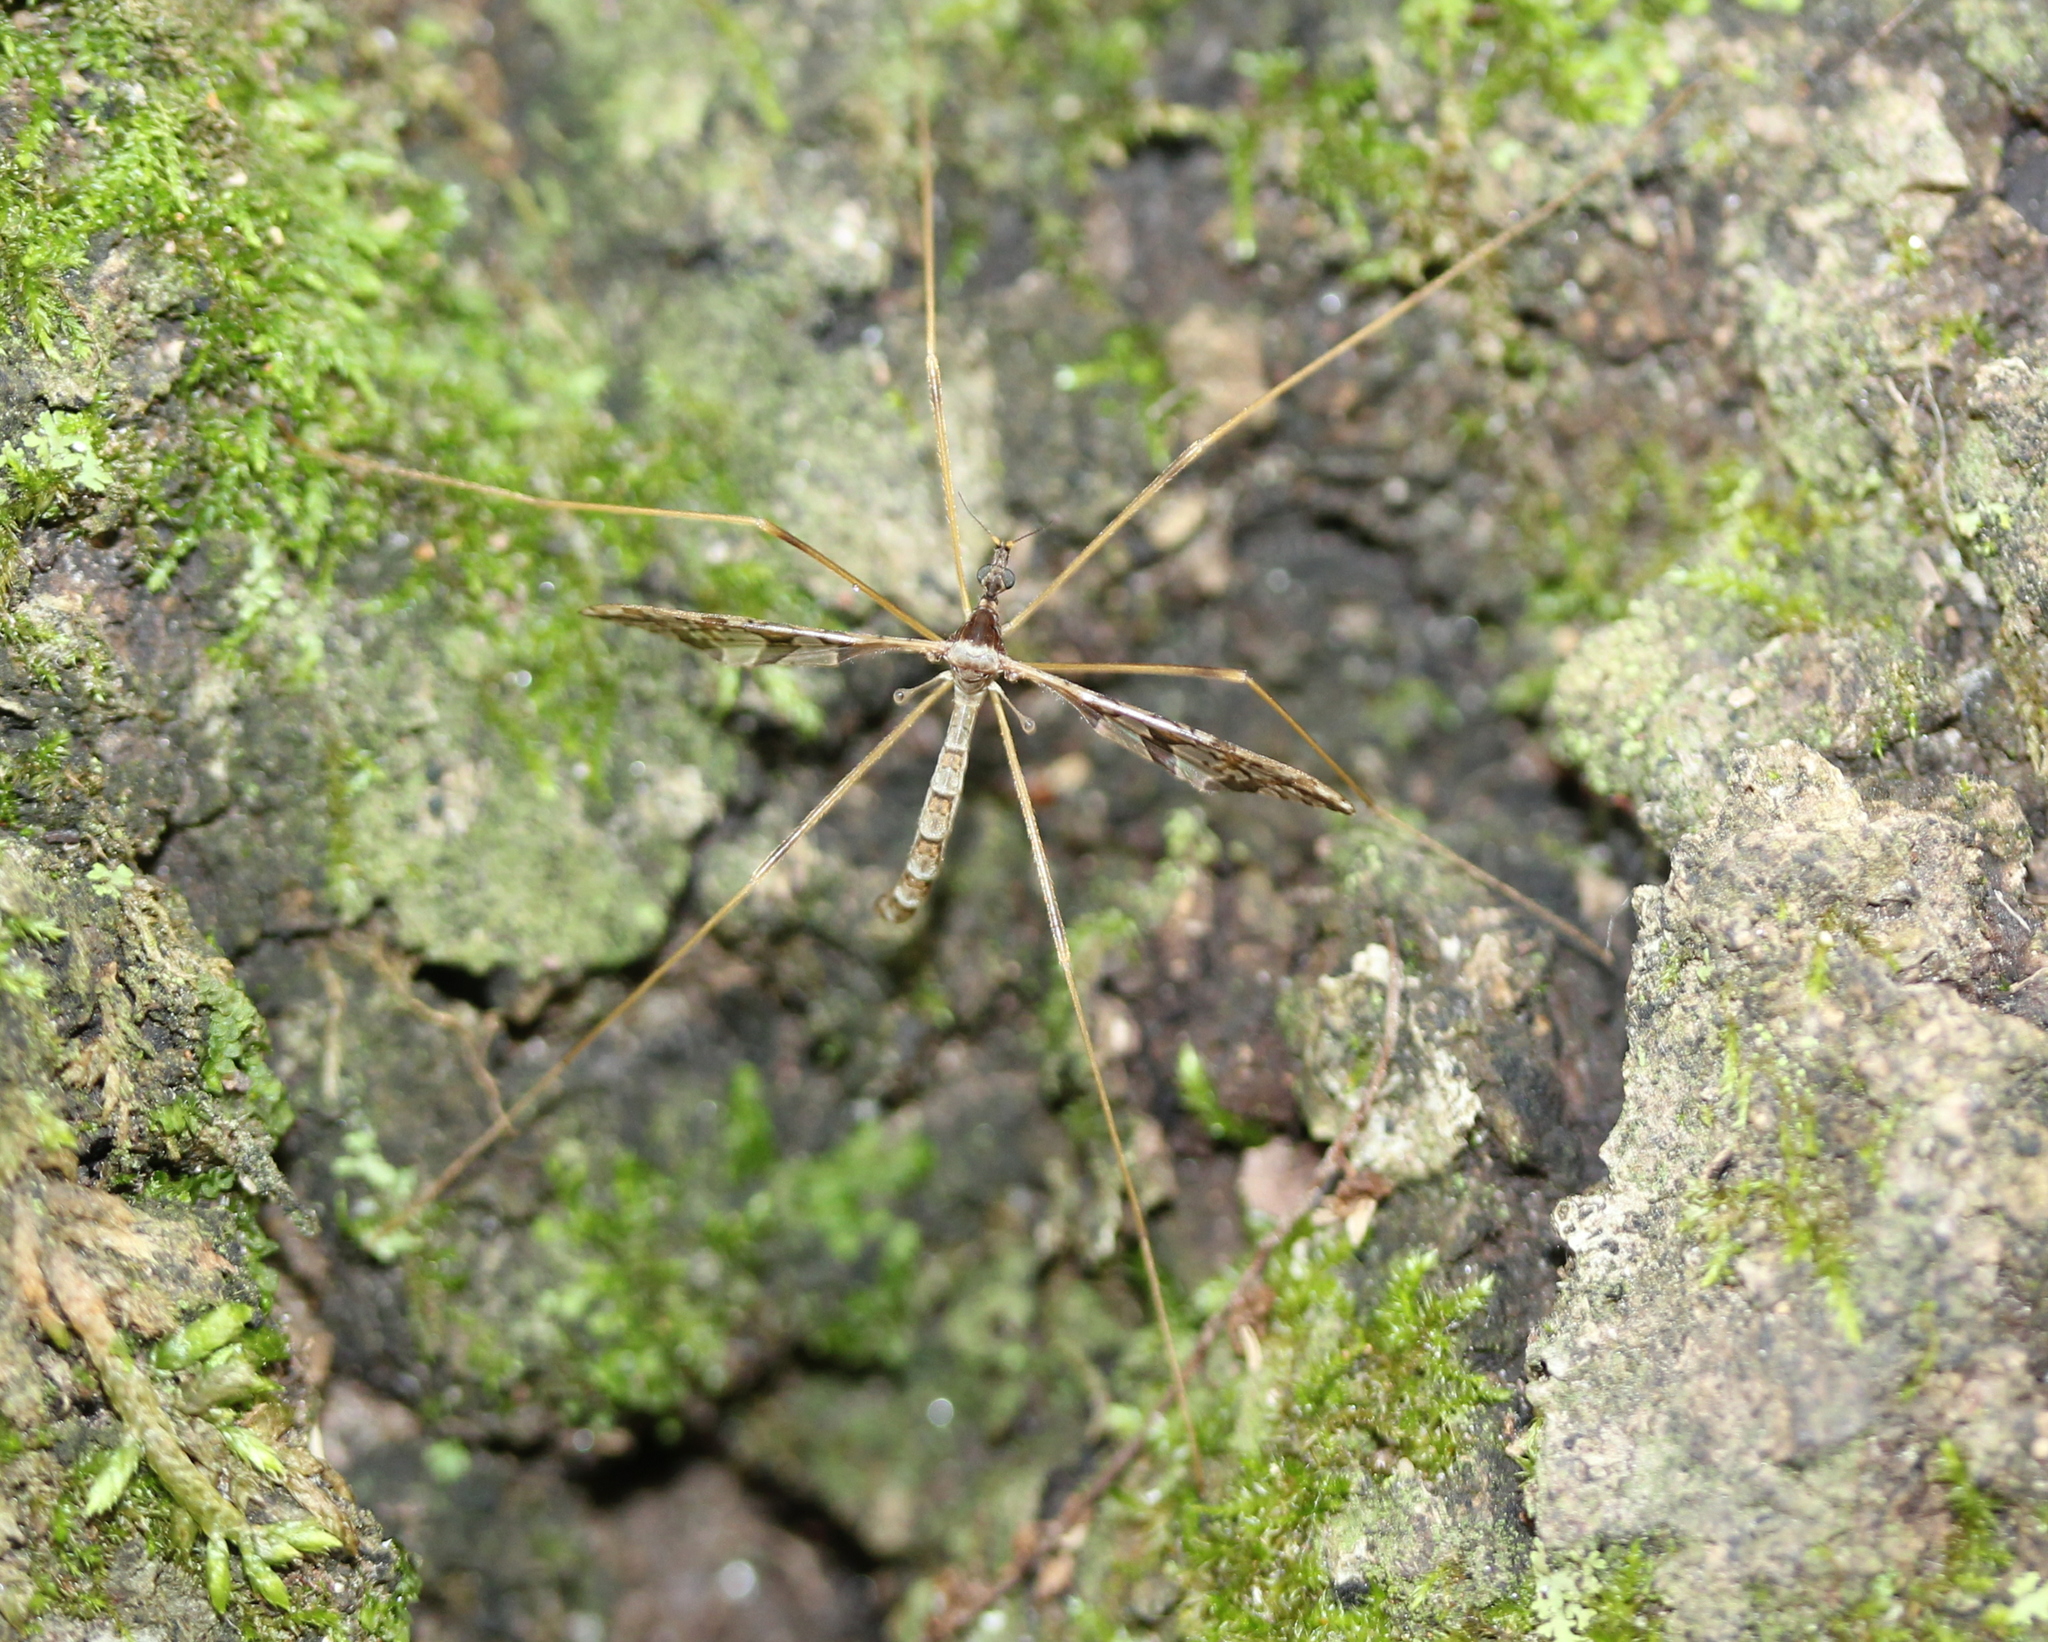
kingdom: Animalia
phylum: Arthropoda
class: Insecta
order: Diptera
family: Limoniidae
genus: Epiphragma
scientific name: Epiphragma solatrix
